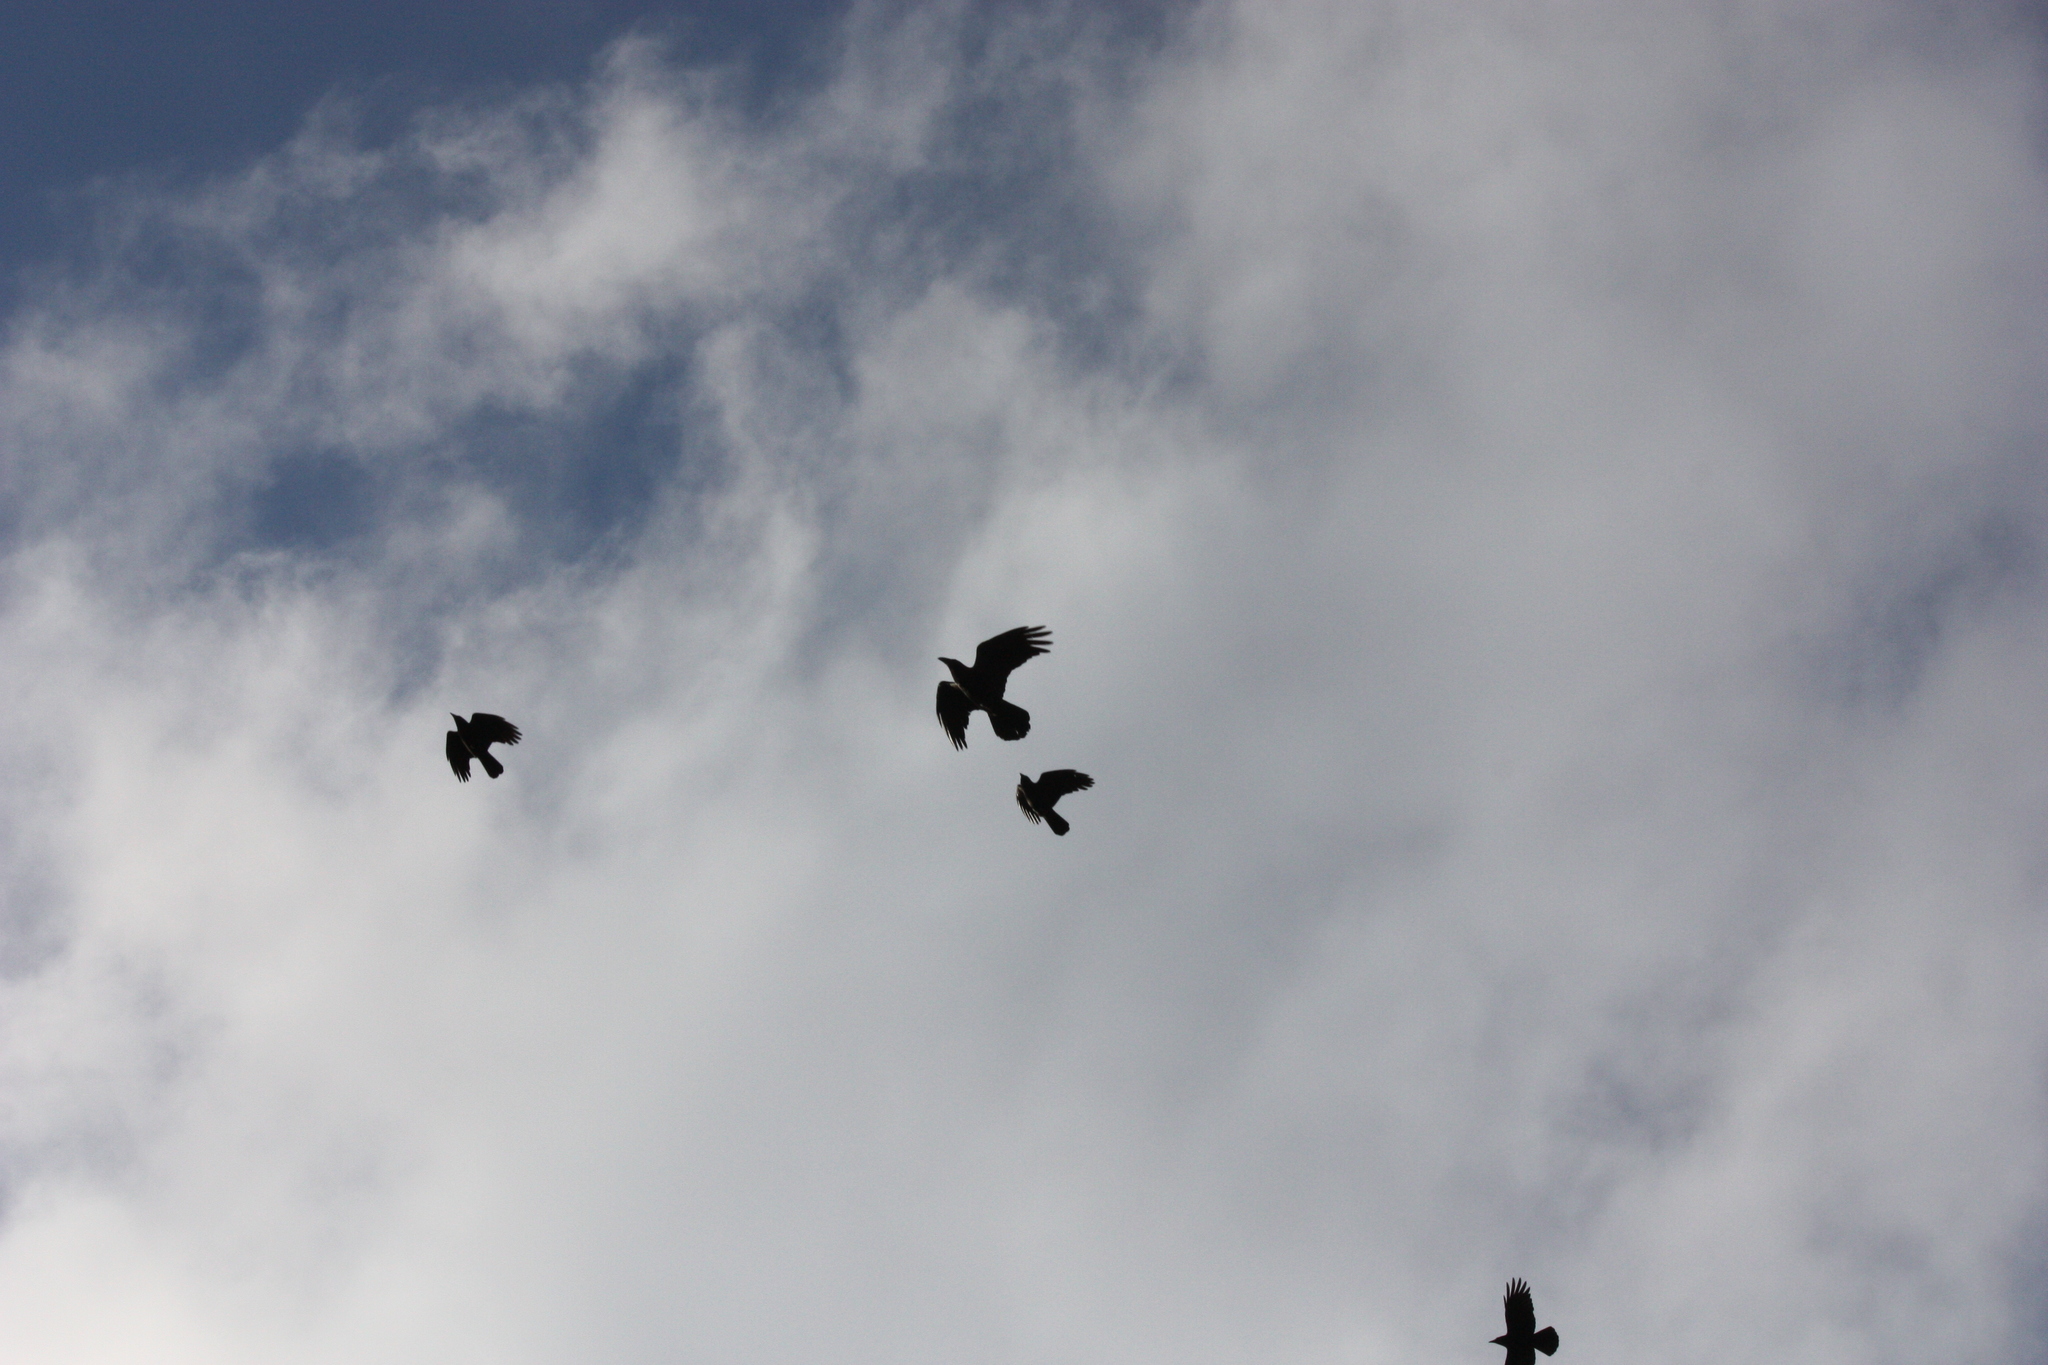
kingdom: Animalia
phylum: Chordata
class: Aves
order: Passeriformes
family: Corvidae
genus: Corvus
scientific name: Corvus corax
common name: Common raven
